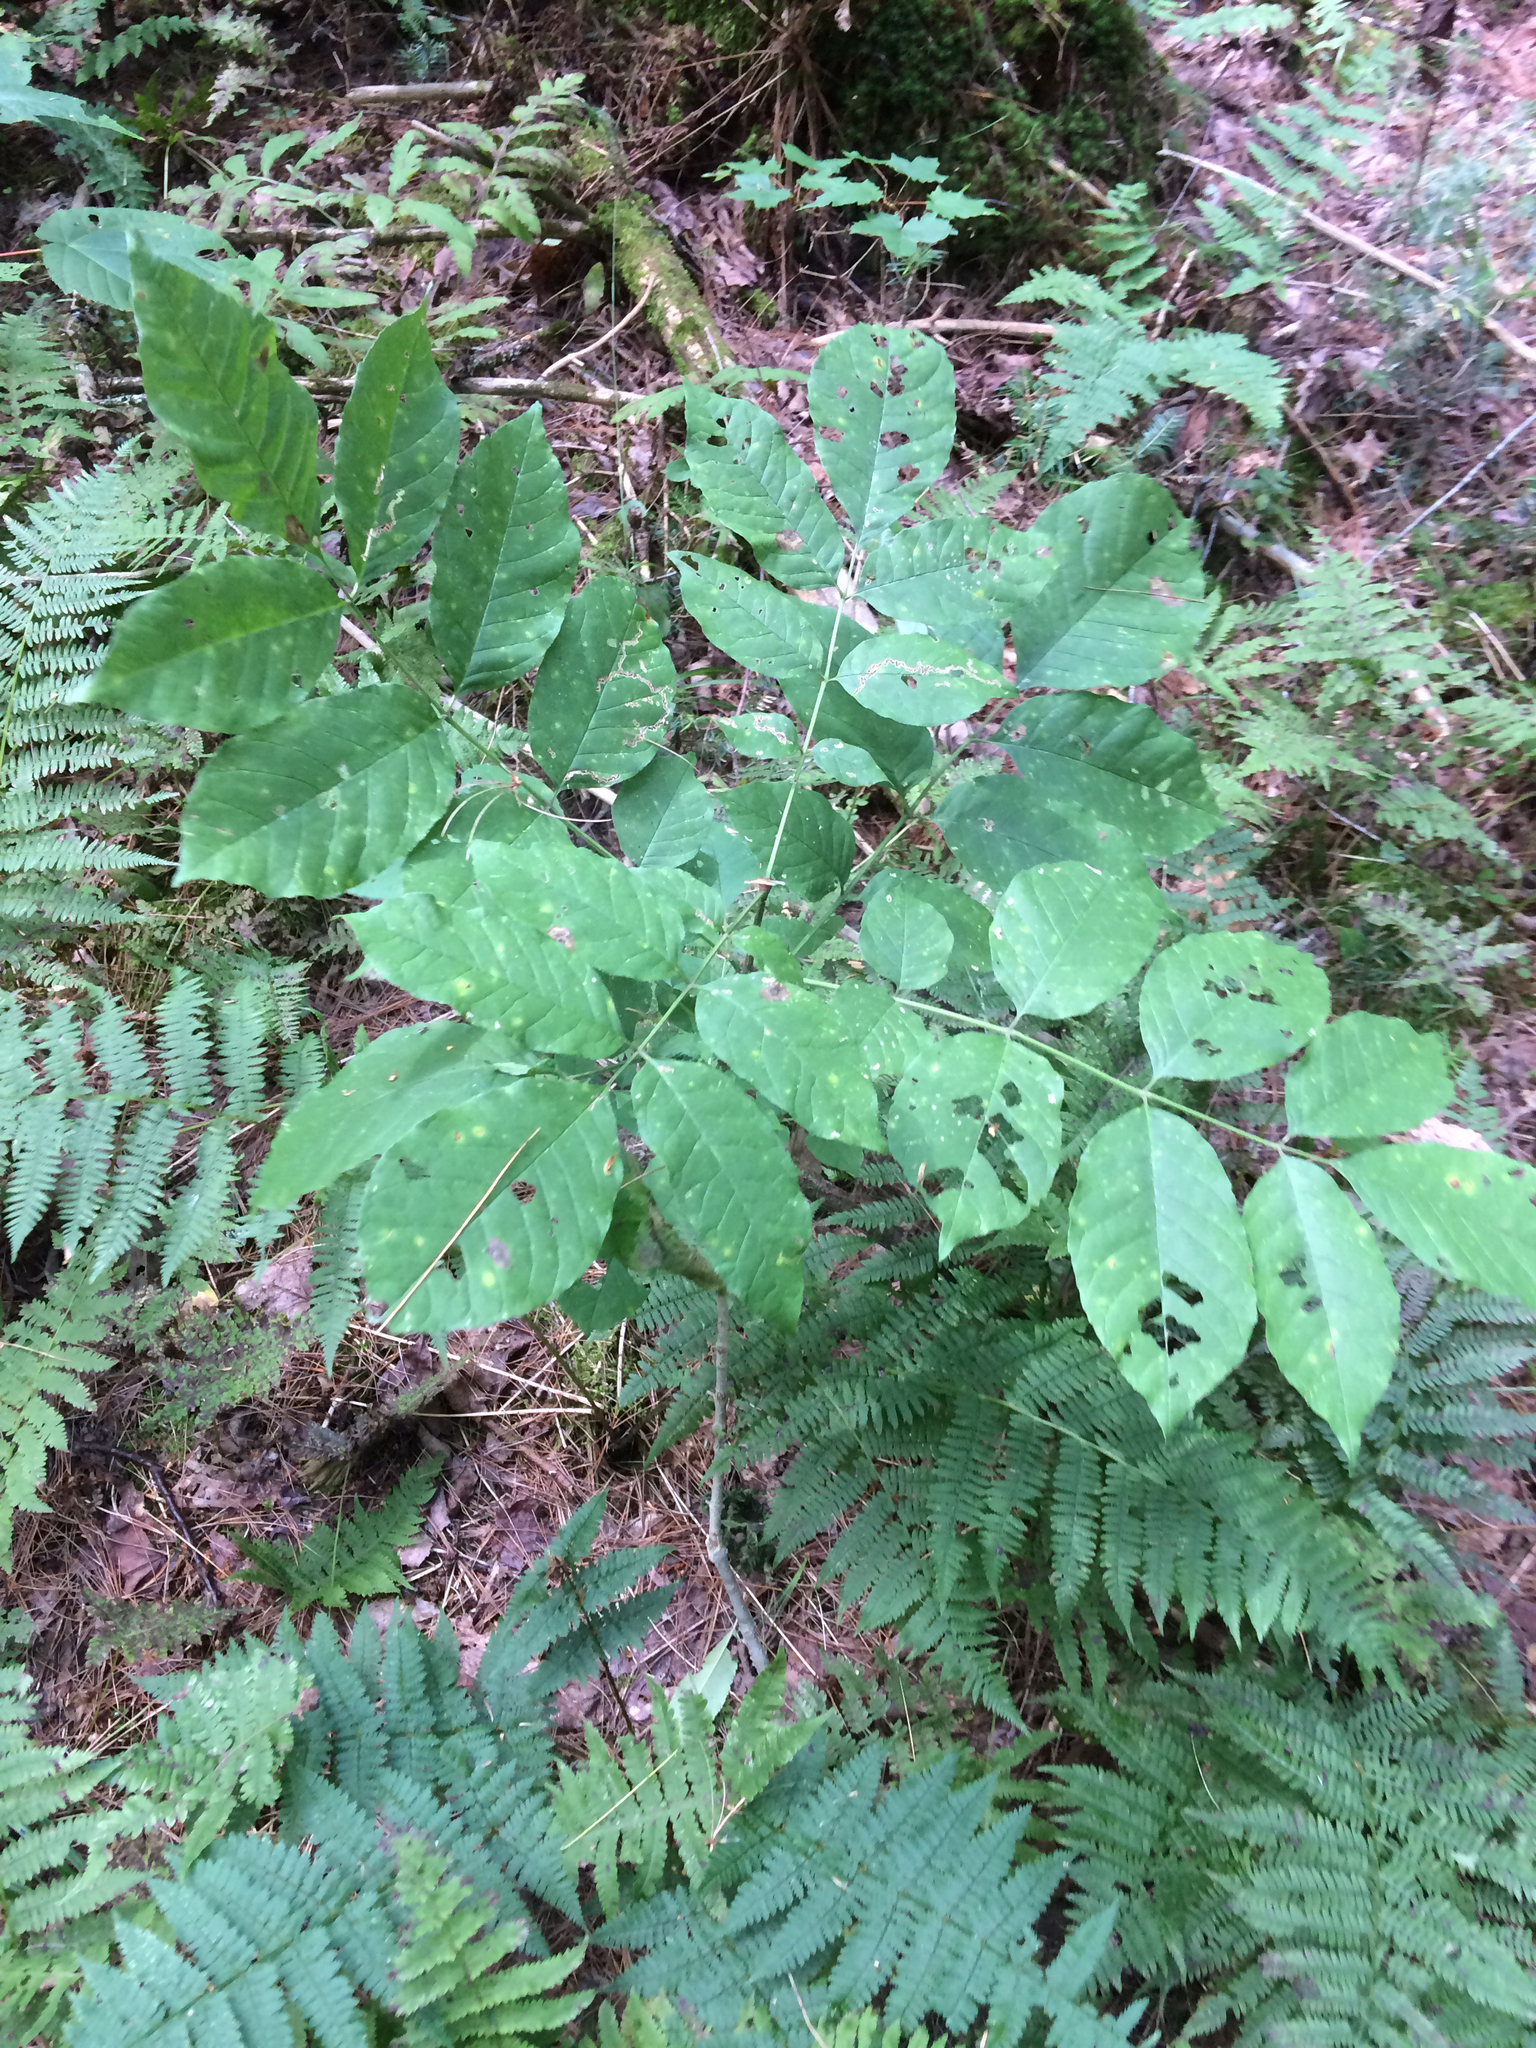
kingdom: Plantae
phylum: Tracheophyta
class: Magnoliopsida
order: Lamiales
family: Oleaceae
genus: Fraxinus
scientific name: Fraxinus americana
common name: White ash
